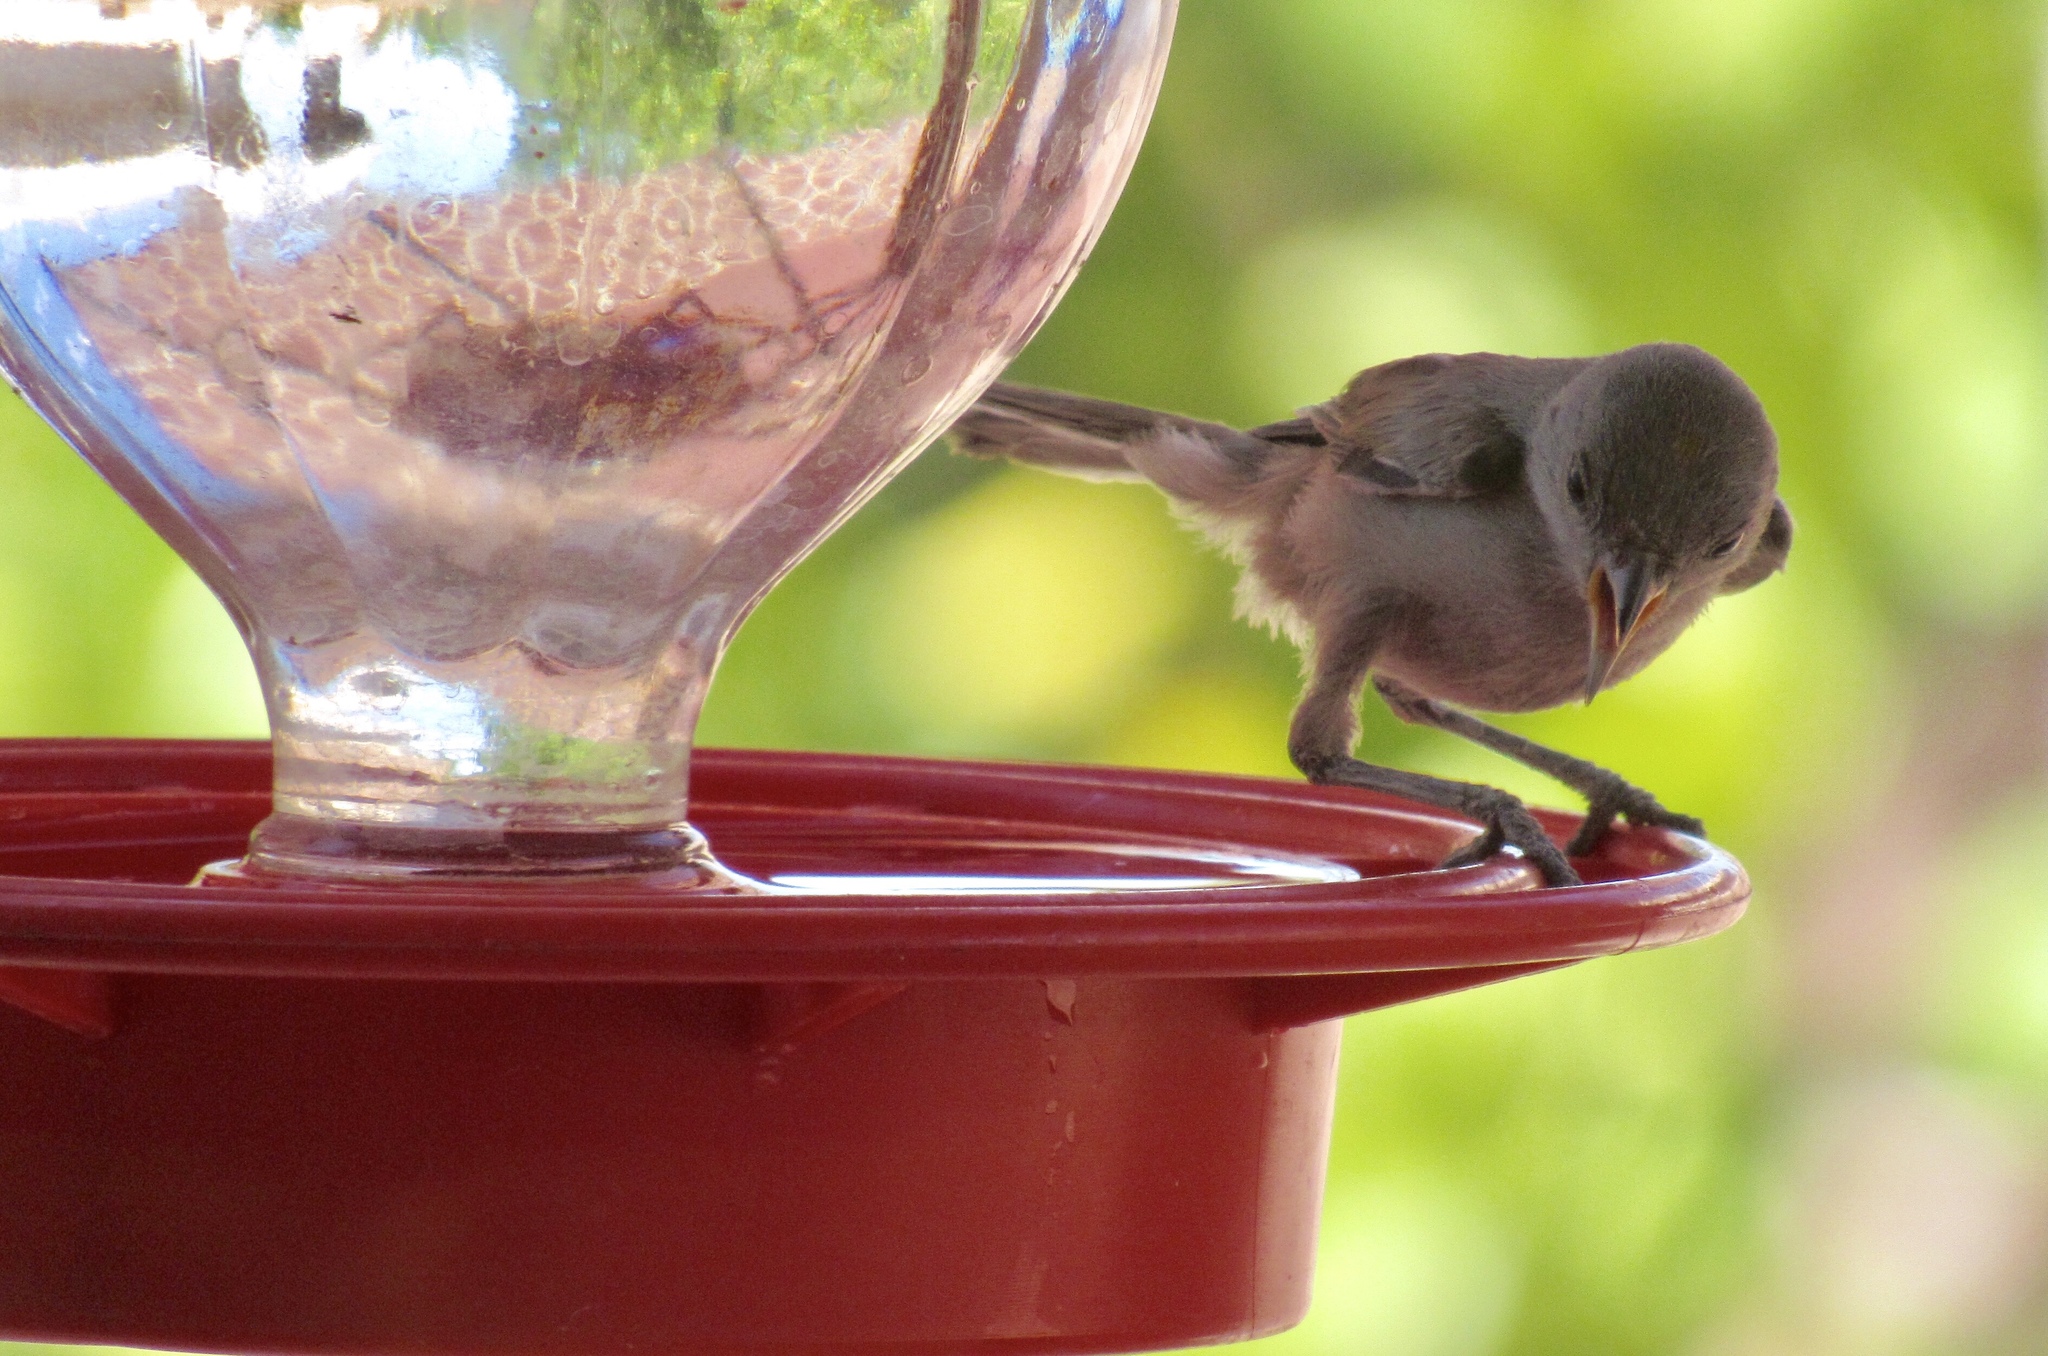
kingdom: Animalia
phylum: Chordata
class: Aves
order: Passeriformes
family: Remizidae
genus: Auriparus
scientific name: Auriparus flaviceps
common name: Verdin
